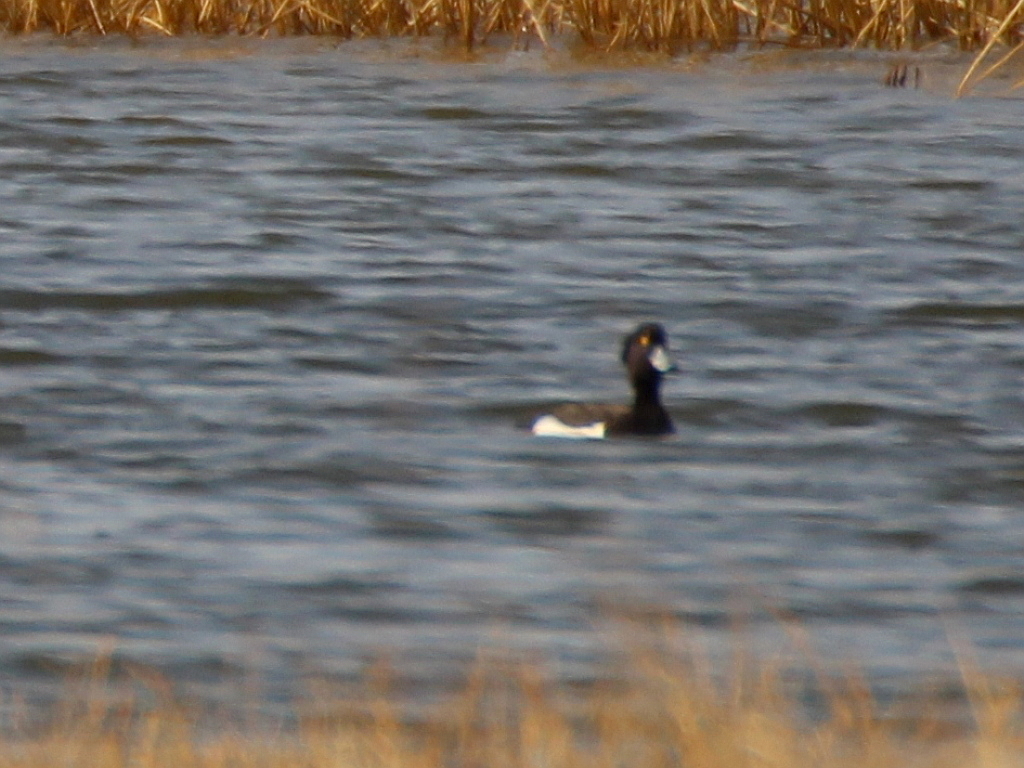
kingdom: Animalia
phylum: Chordata
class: Aves
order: Anseriformes
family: Anatidae
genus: Aythya
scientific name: Aythya fuligula
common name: Tufted duck
